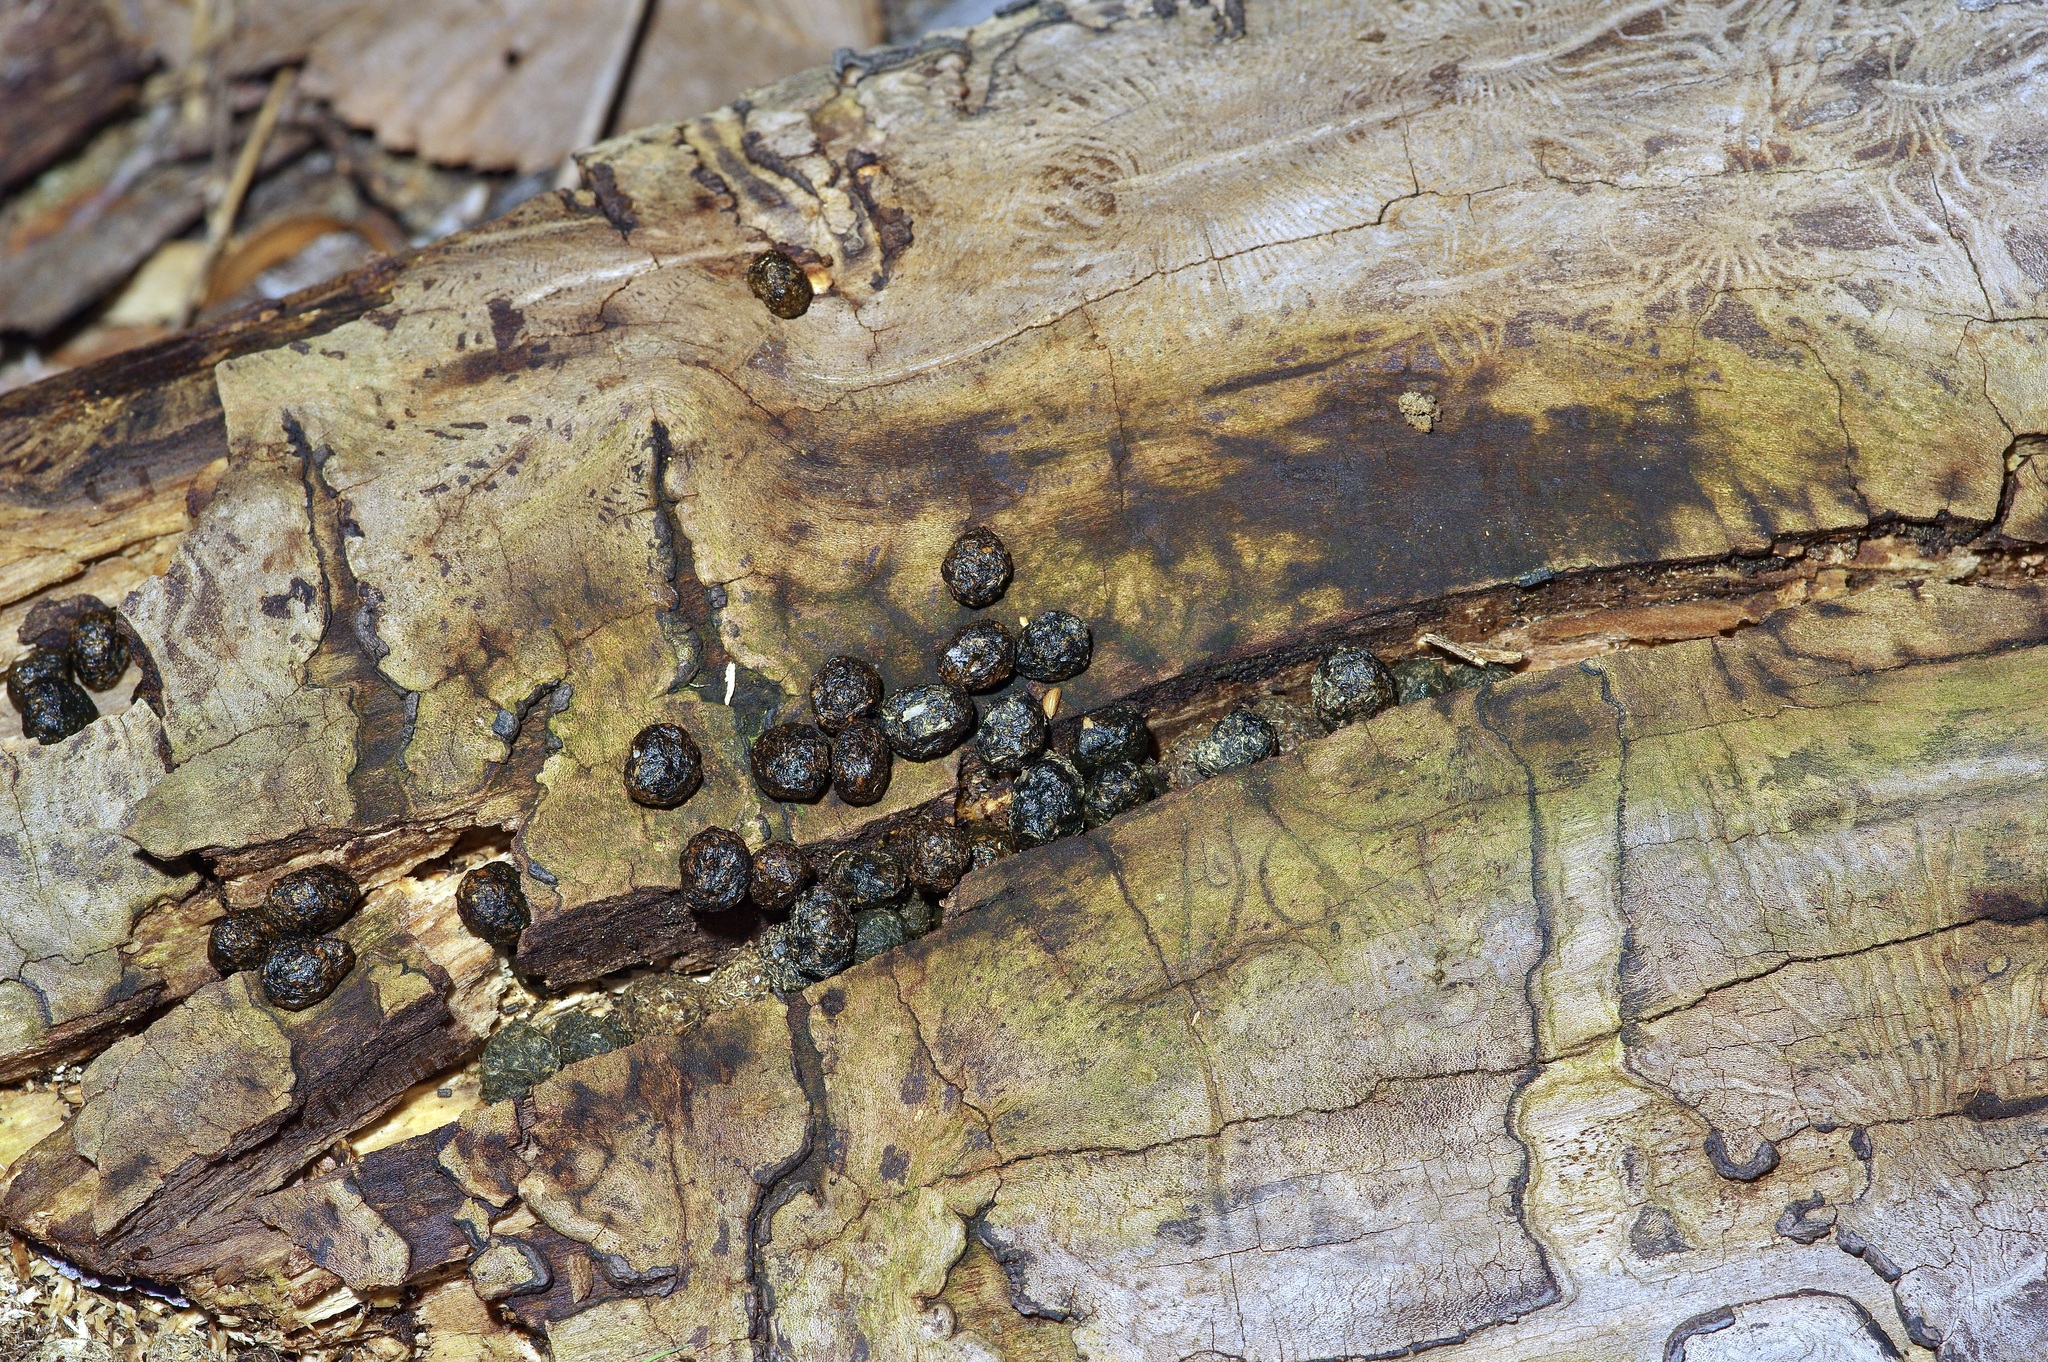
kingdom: Animalia
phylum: Chordata
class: Mammalia
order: Lagomorpha
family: Leporidae
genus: Sylvilagus
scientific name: Sylvilagus aquaticus
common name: Swamp rabbit
